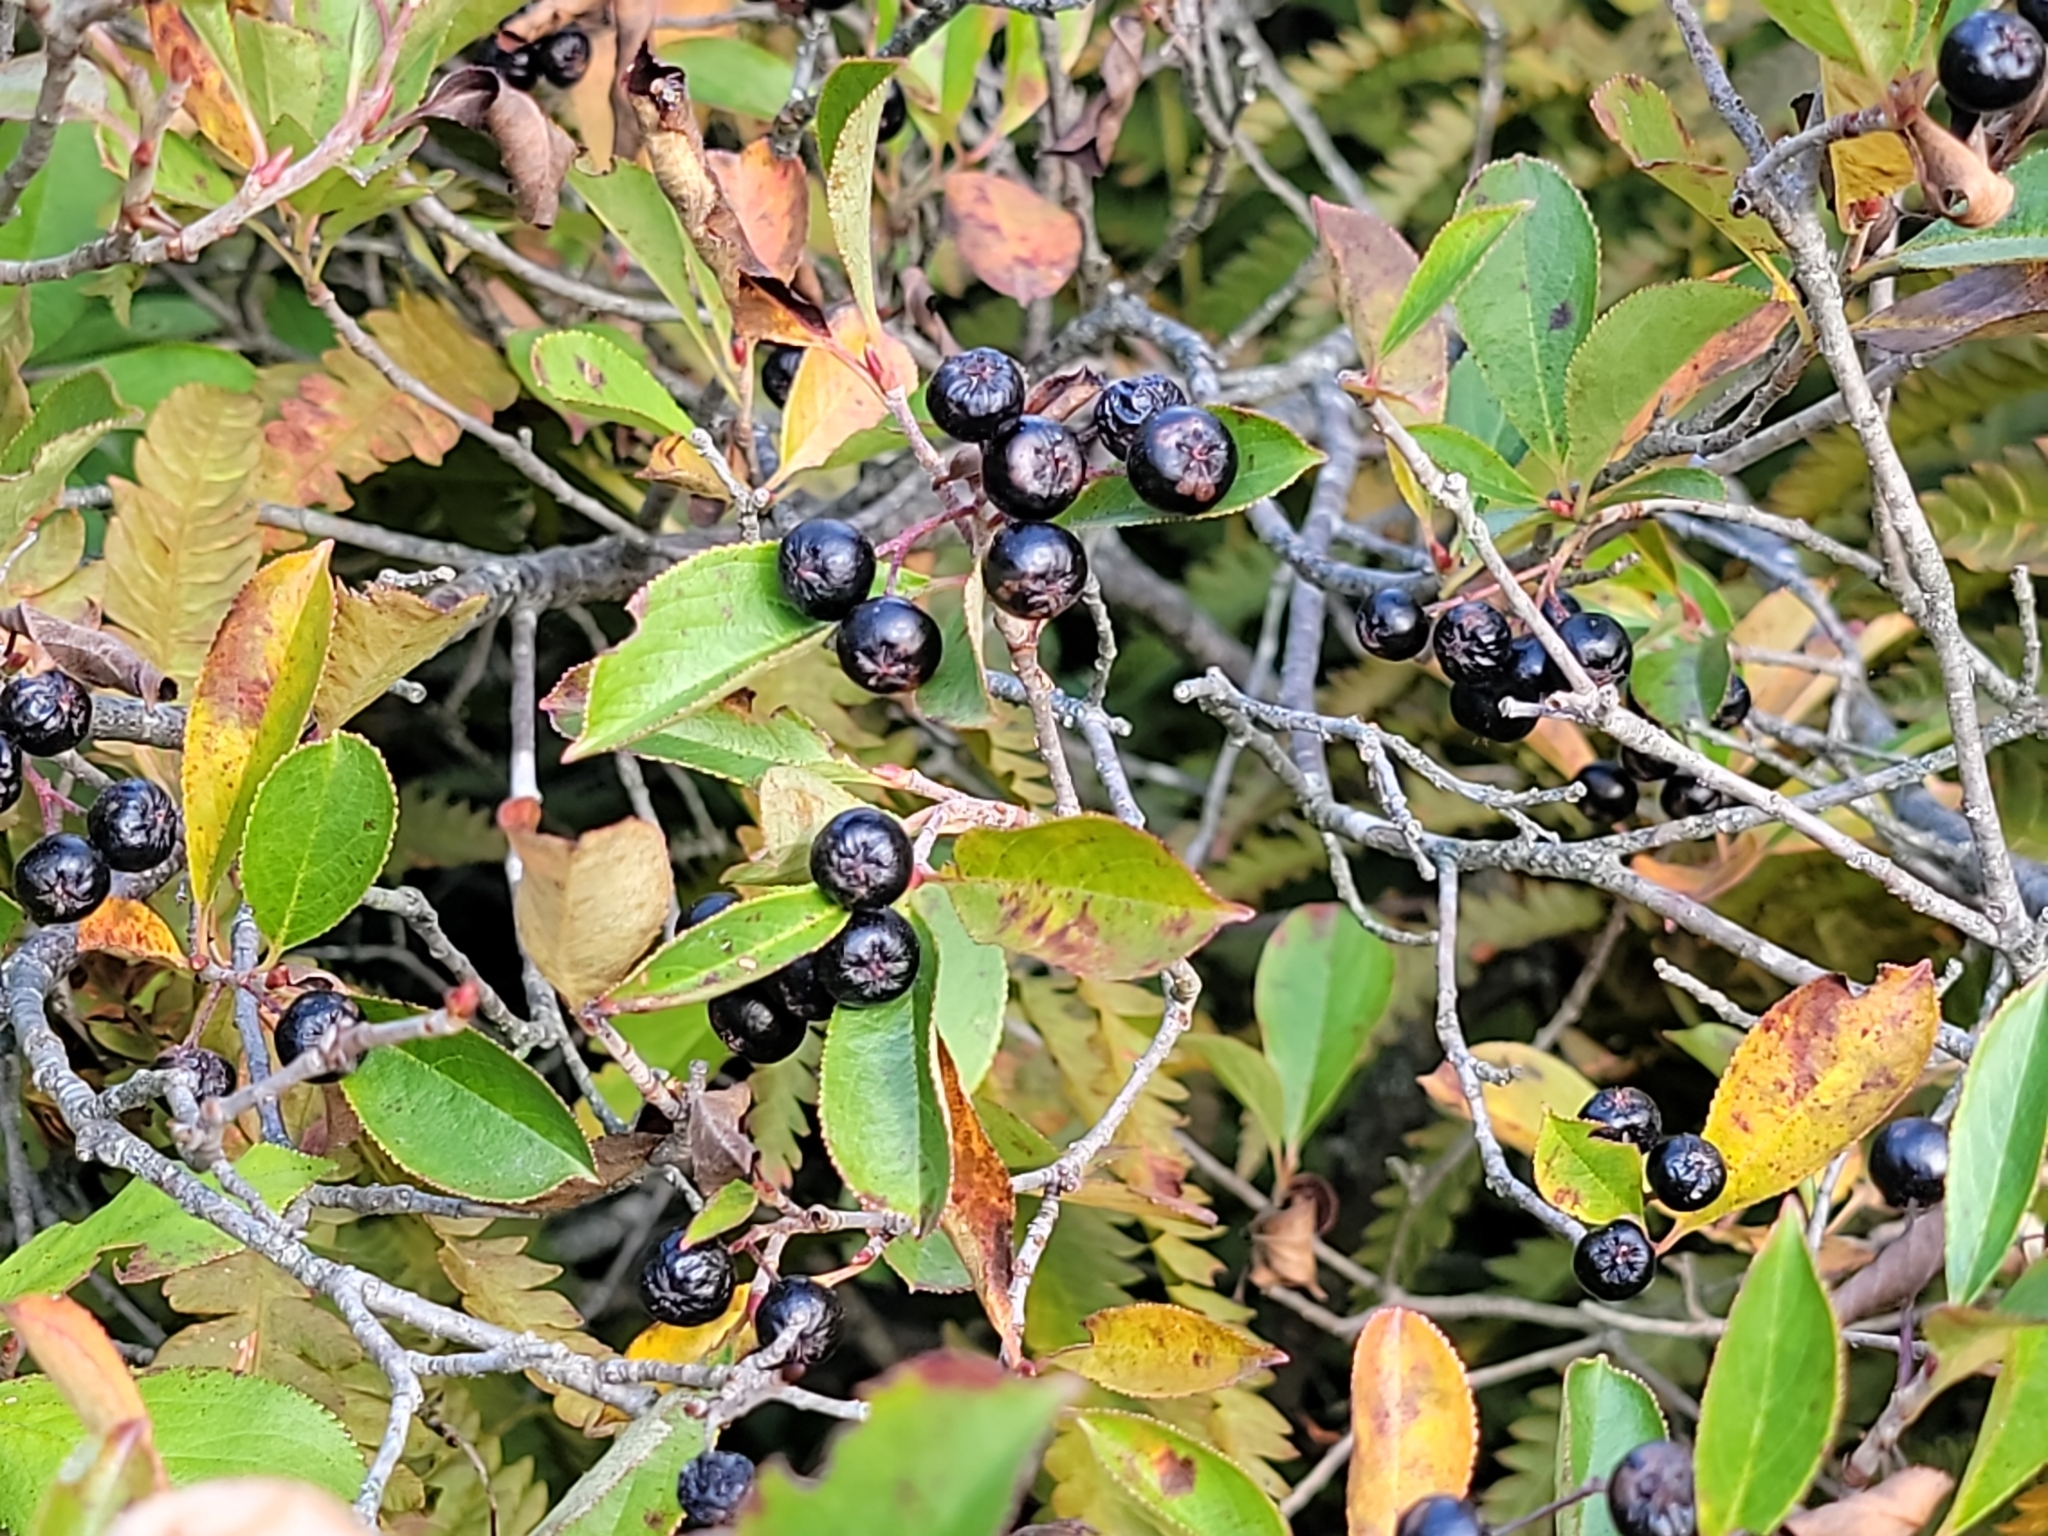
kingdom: Plantae
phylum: Tracheophyta
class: Magnoliopsida
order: Rosales
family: Rosaceae
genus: Aronia
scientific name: Aronia melanocarpa
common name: Black chokeberry
